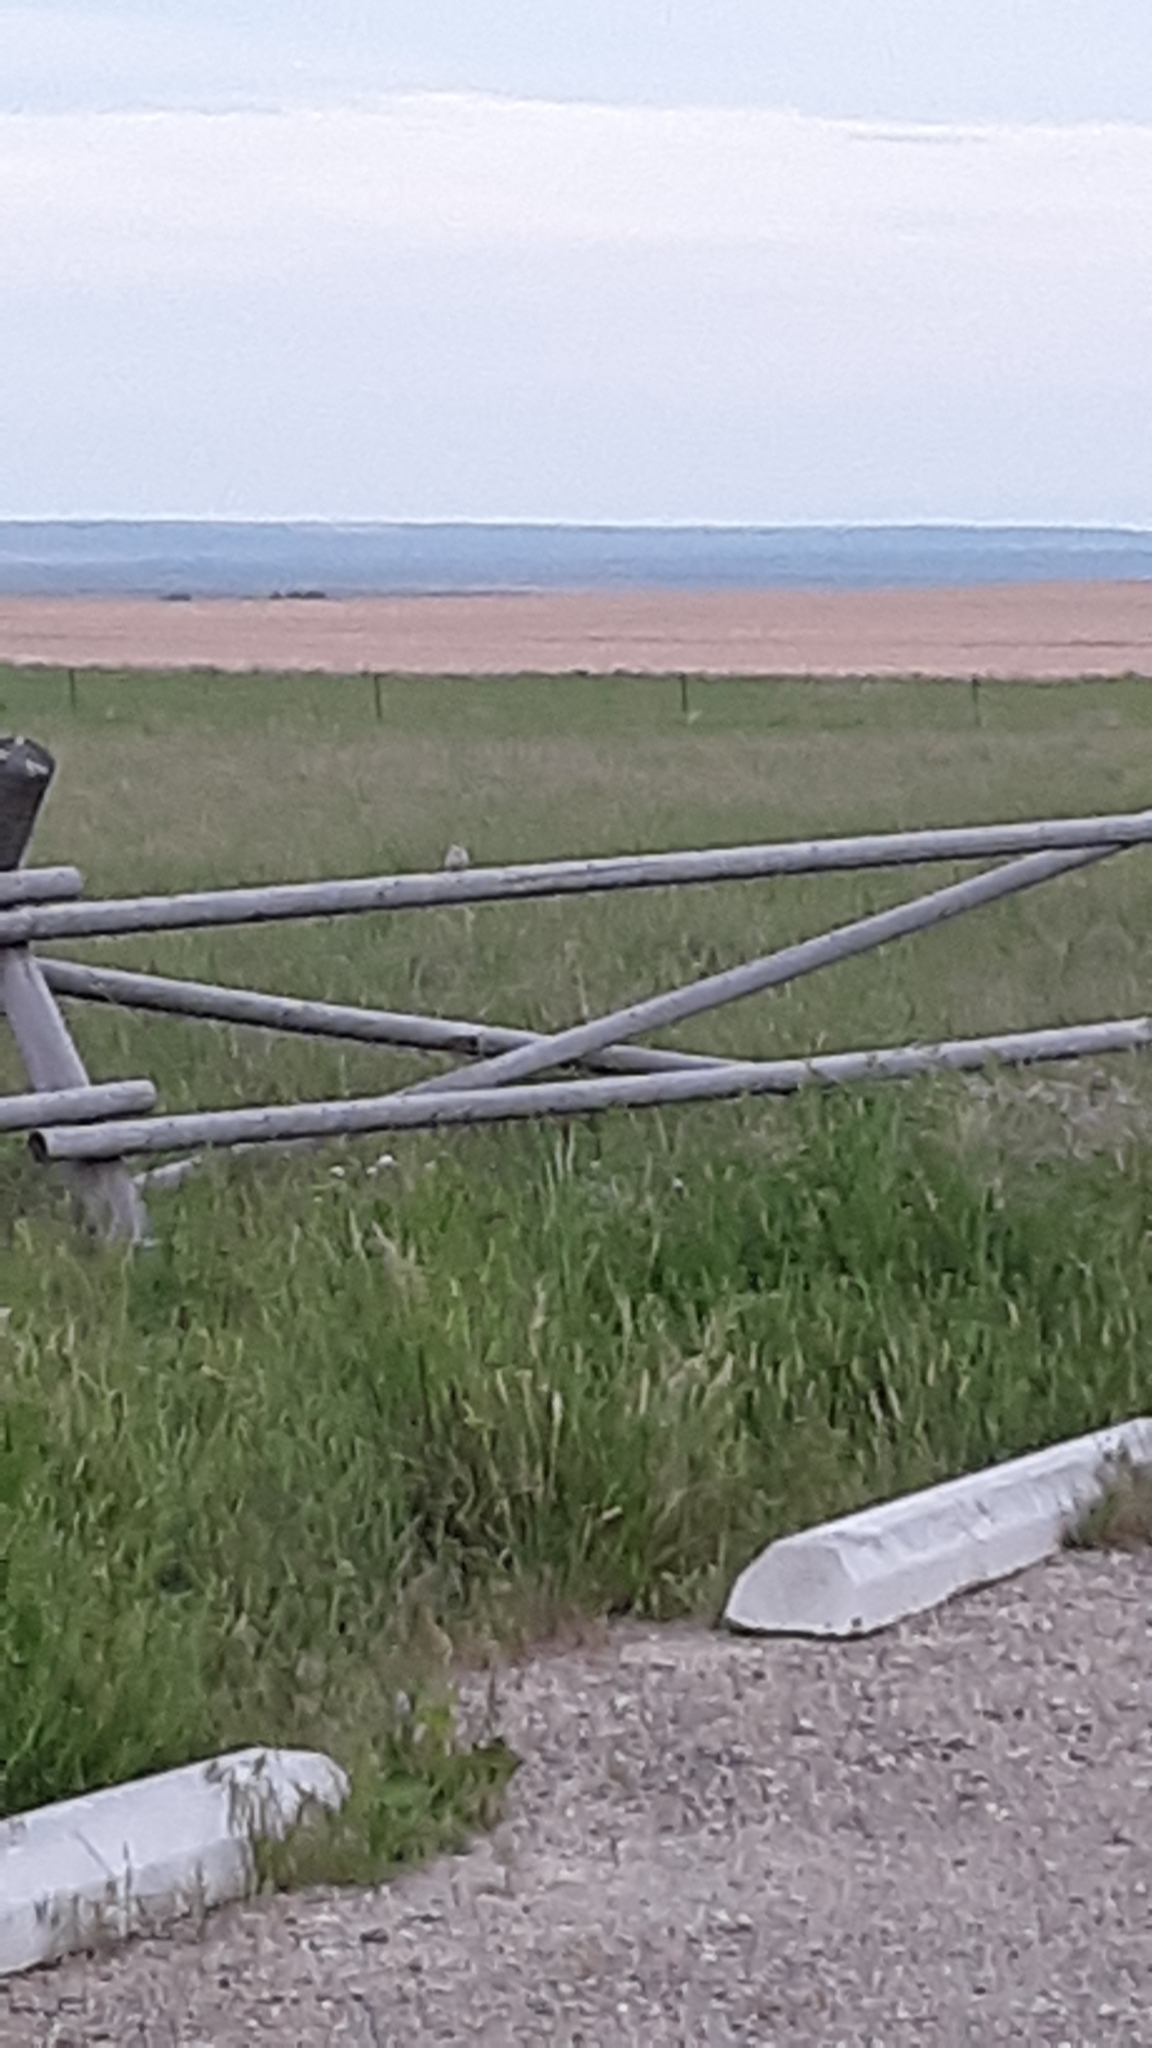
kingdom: Animalia
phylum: Chordata
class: Aves
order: Passeriformes
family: Passerellidae
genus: Pooecetes
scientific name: Pooecetes gramineus
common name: Vesper sparrow
